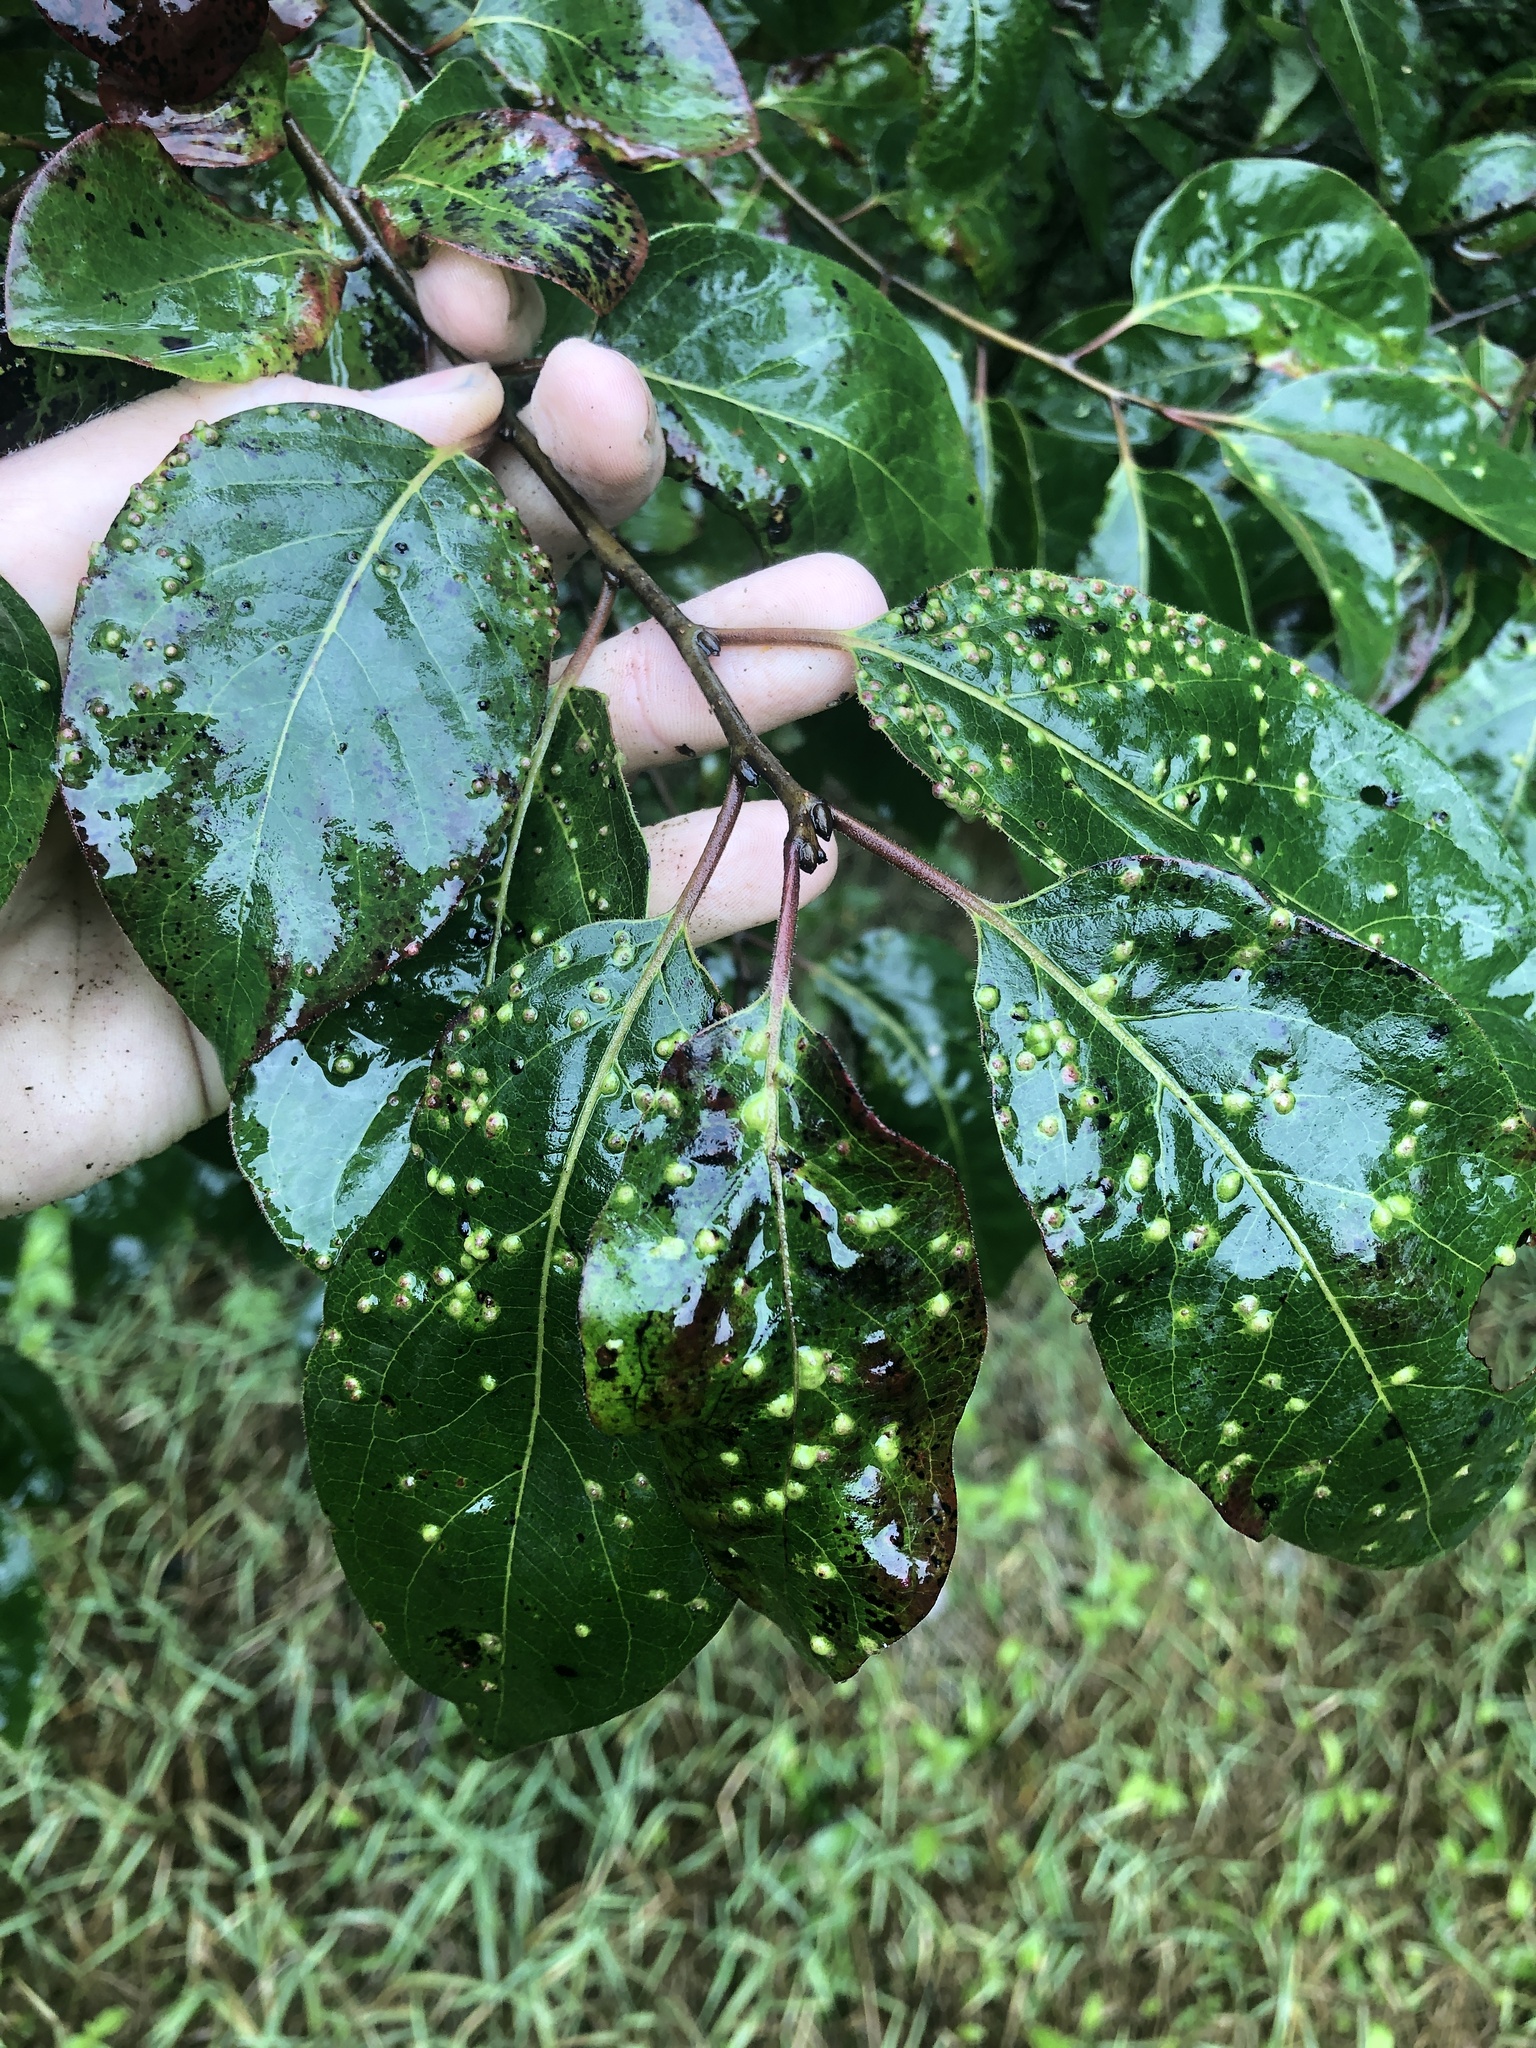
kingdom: Plantae
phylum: Tracheophyta
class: Magnoliopsida
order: Ericales
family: Ebenaceae
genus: Diospyros
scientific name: Diospyros virginiana
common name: Persimmon
